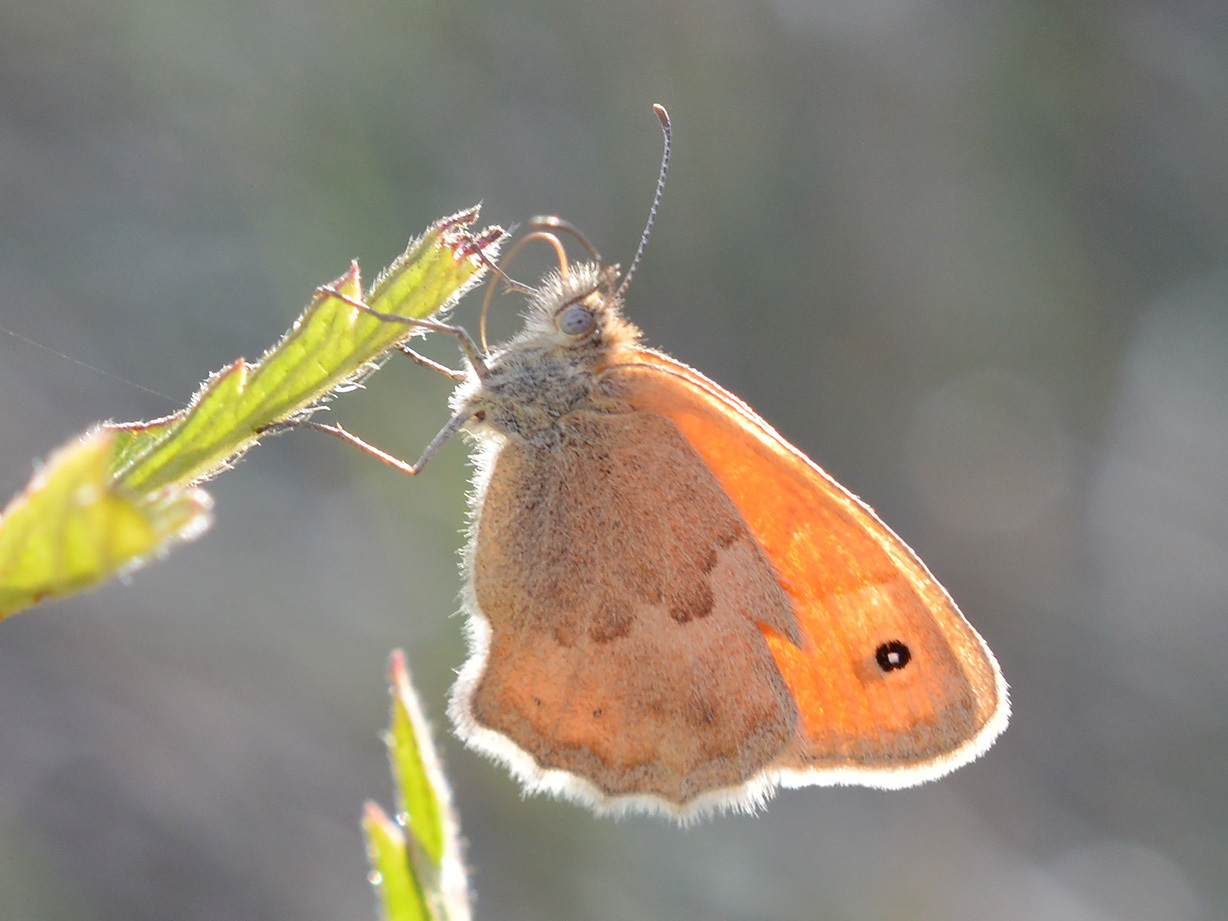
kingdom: Animalia
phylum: Arthropoda
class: Insecta
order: Lepidoptera
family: Nymphalidae
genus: Coenonympha
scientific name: Coenonympha pamphilus
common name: Small heath
